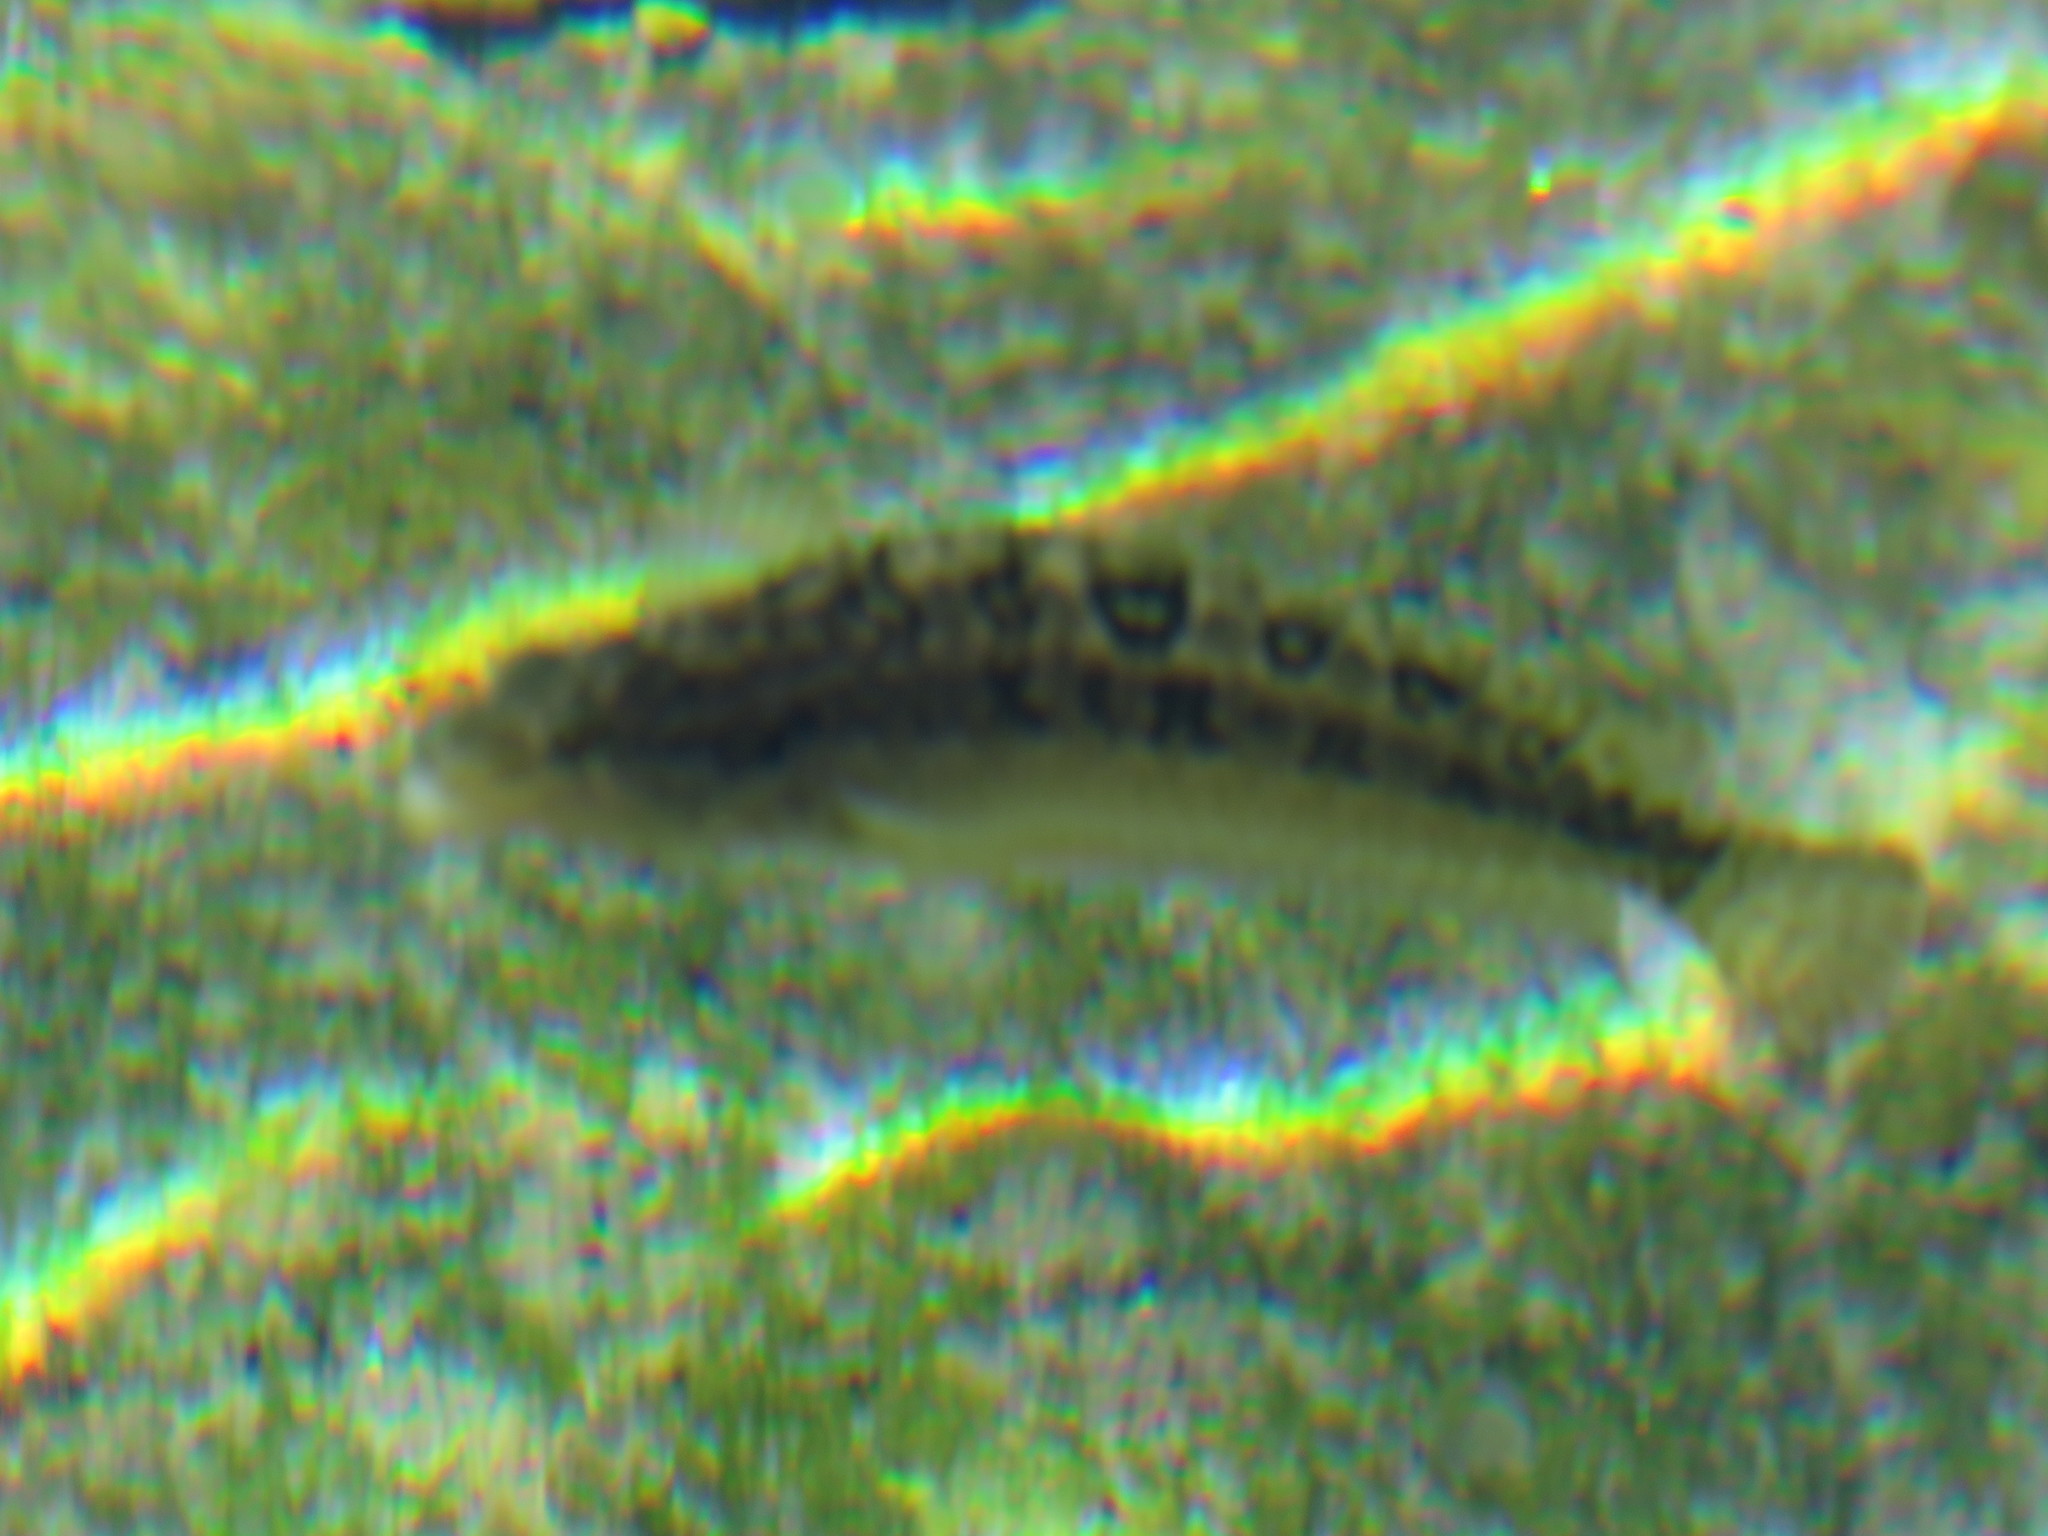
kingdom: Animalia
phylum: Chordata
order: Perciformes
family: Clinidae
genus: Clinus
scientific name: Clinus superciliosus
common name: Super klipfish
